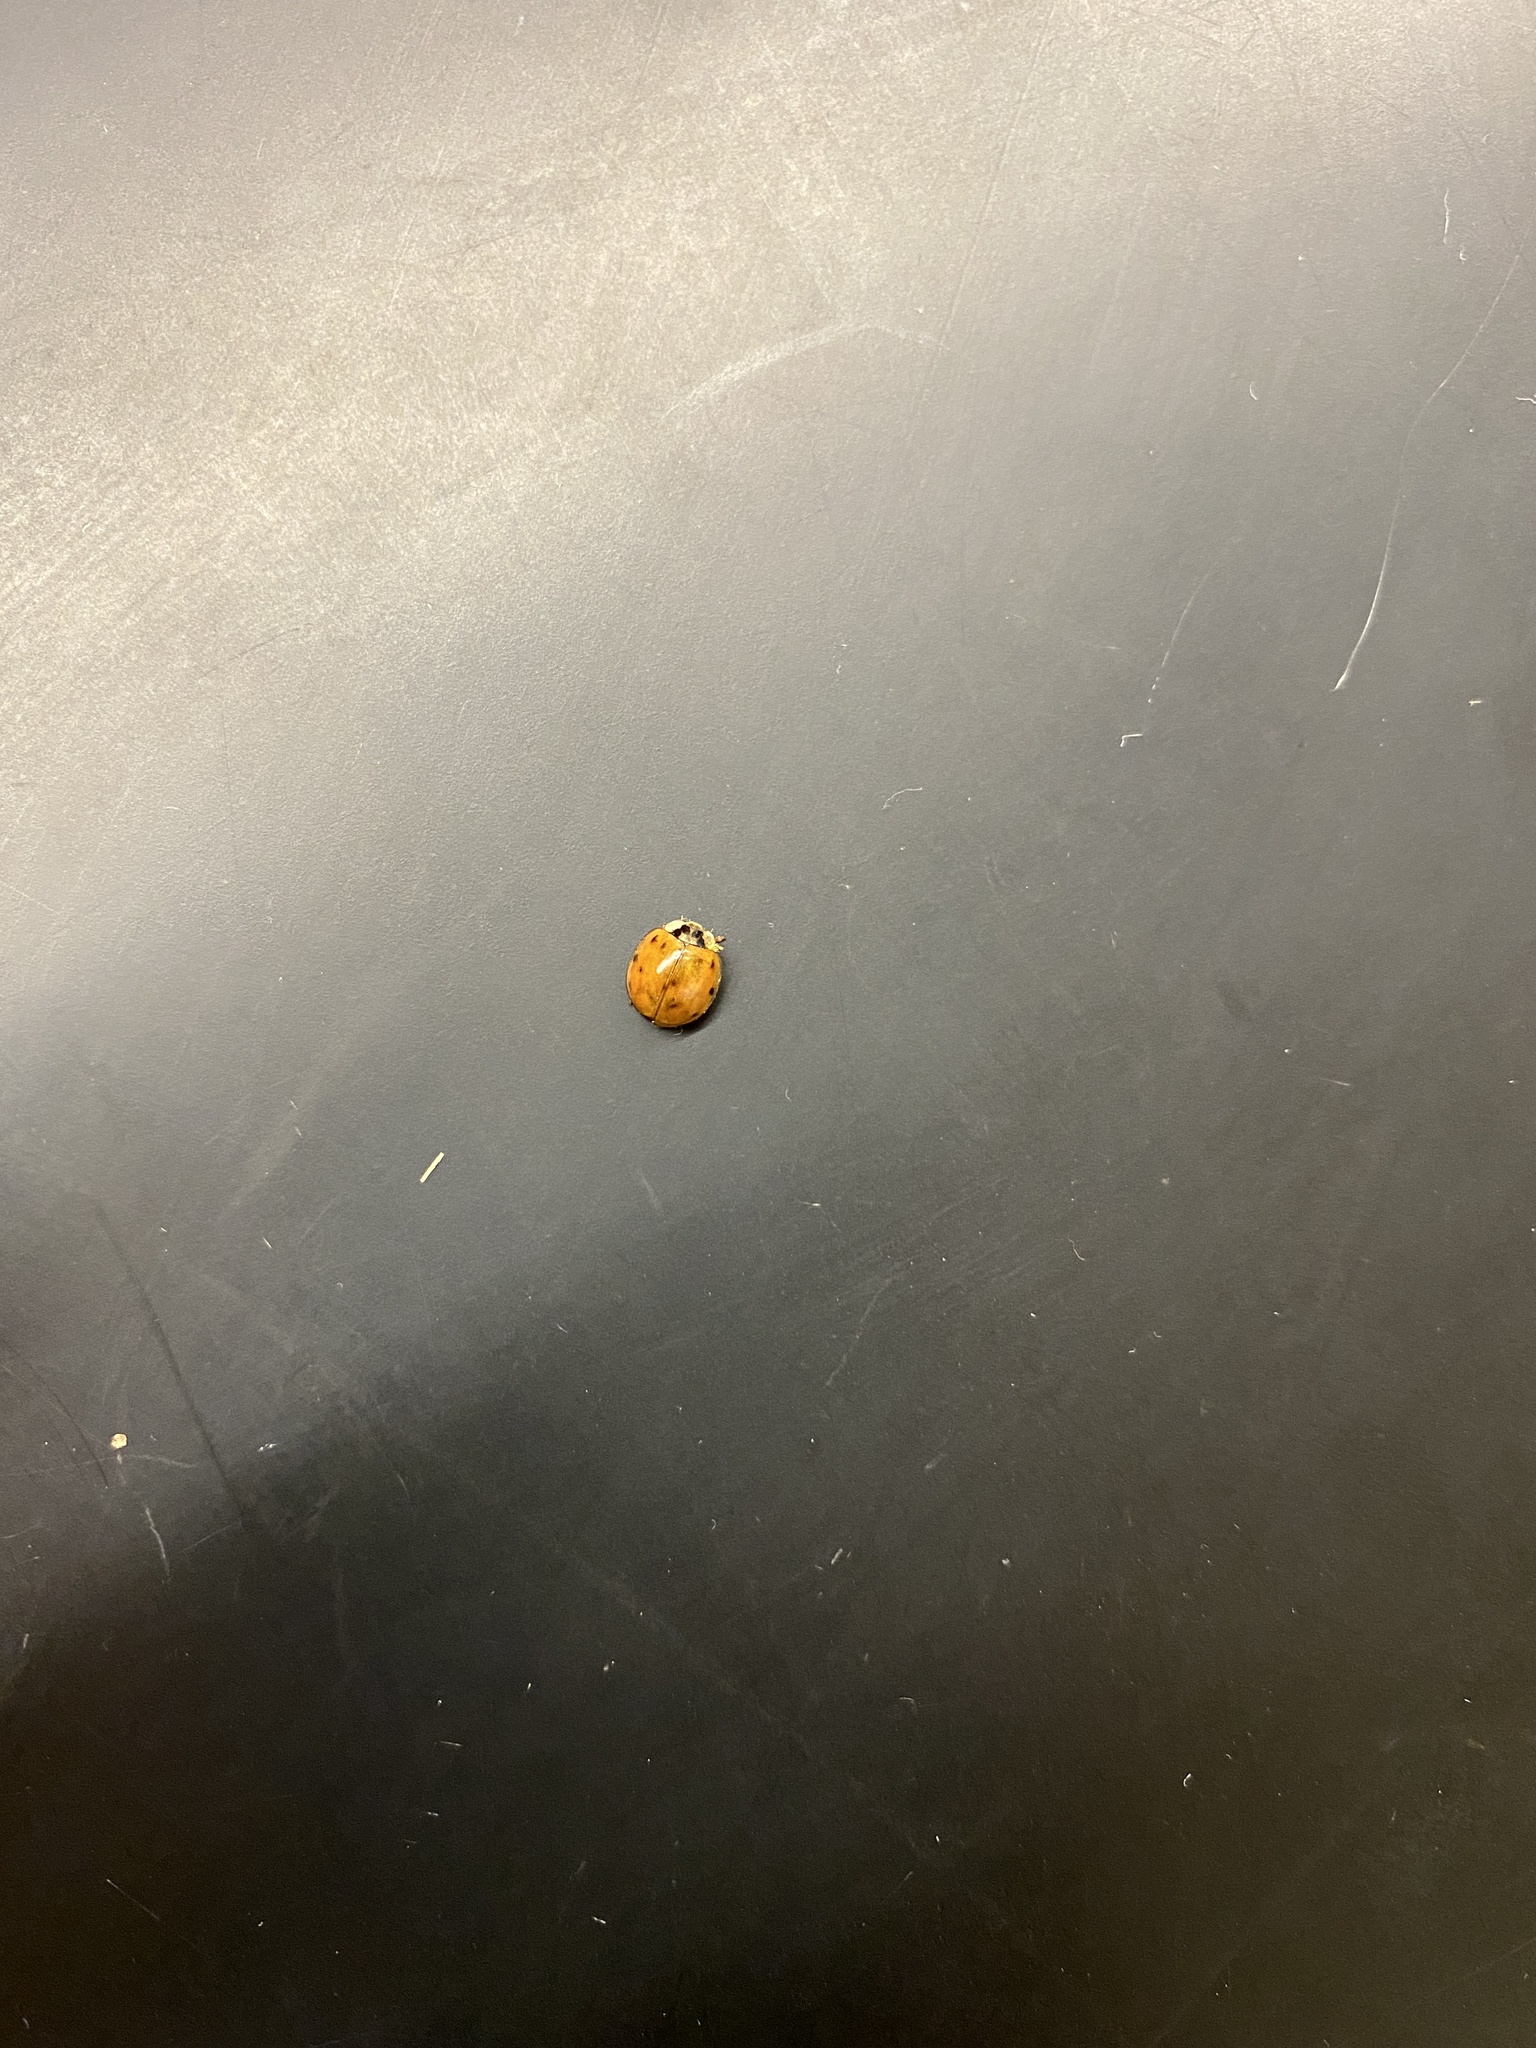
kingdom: Animalia
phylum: Arthropoda
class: Insecta
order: Coleoptera
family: Coccinellidae
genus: Harmonia
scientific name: Harmonia axyridis
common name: Harlequin ladybird
